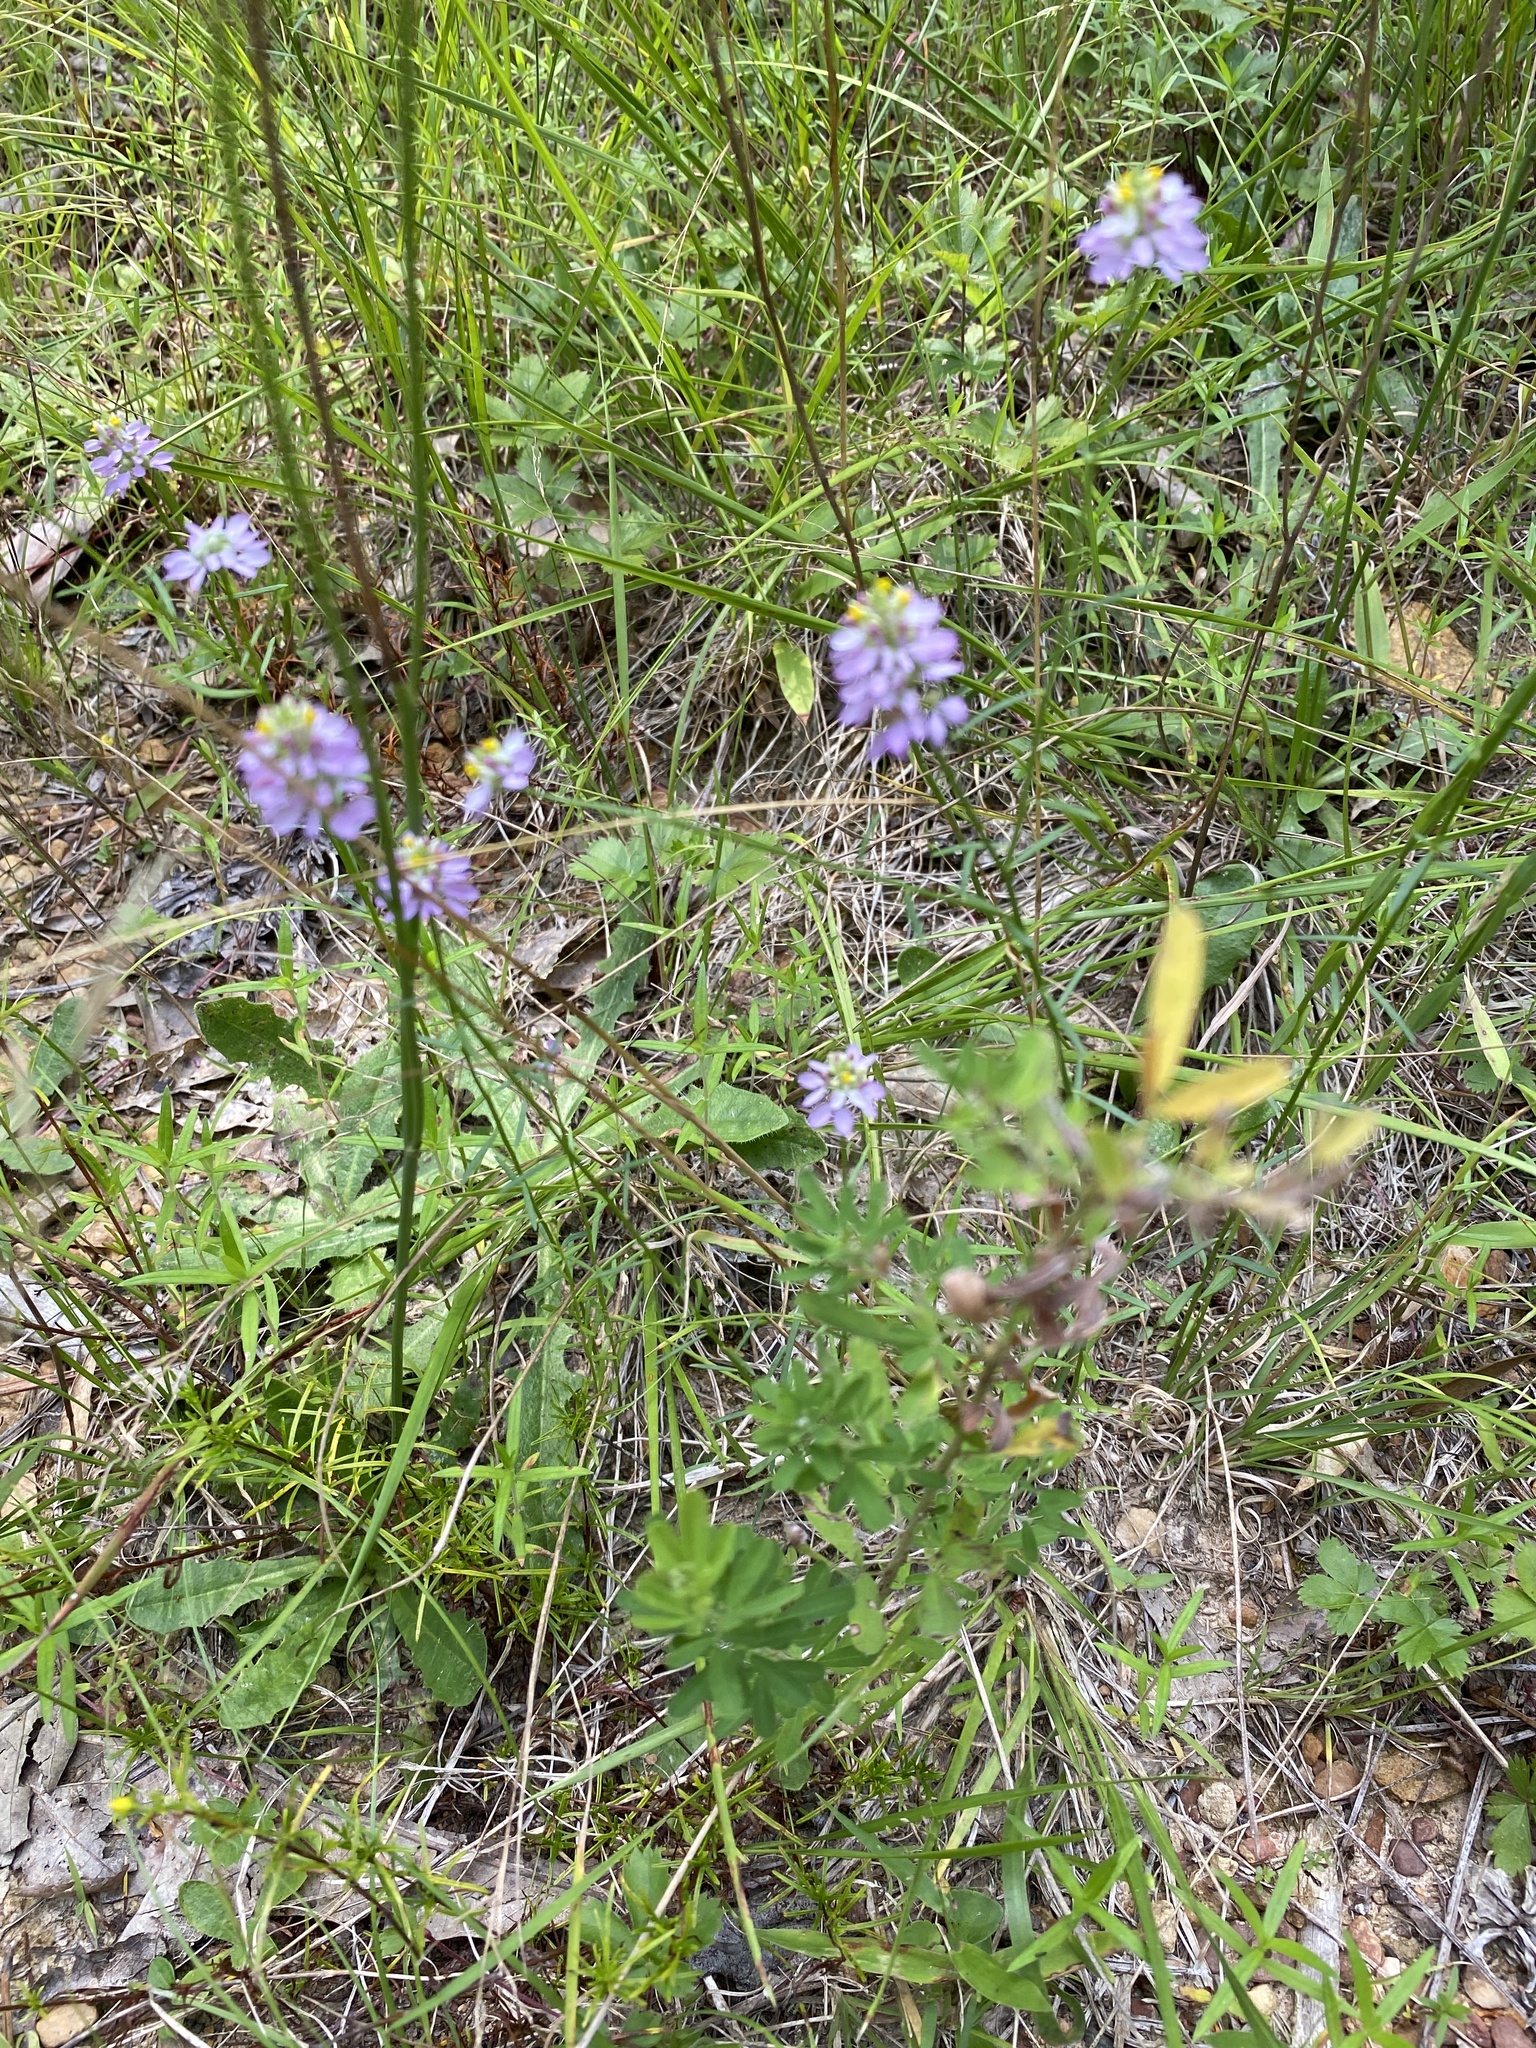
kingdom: Plantae
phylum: Tracheophyta
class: Magnoliopsida
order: Fabales
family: Polygalaceae
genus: Polygala
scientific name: Polygala curtissii
